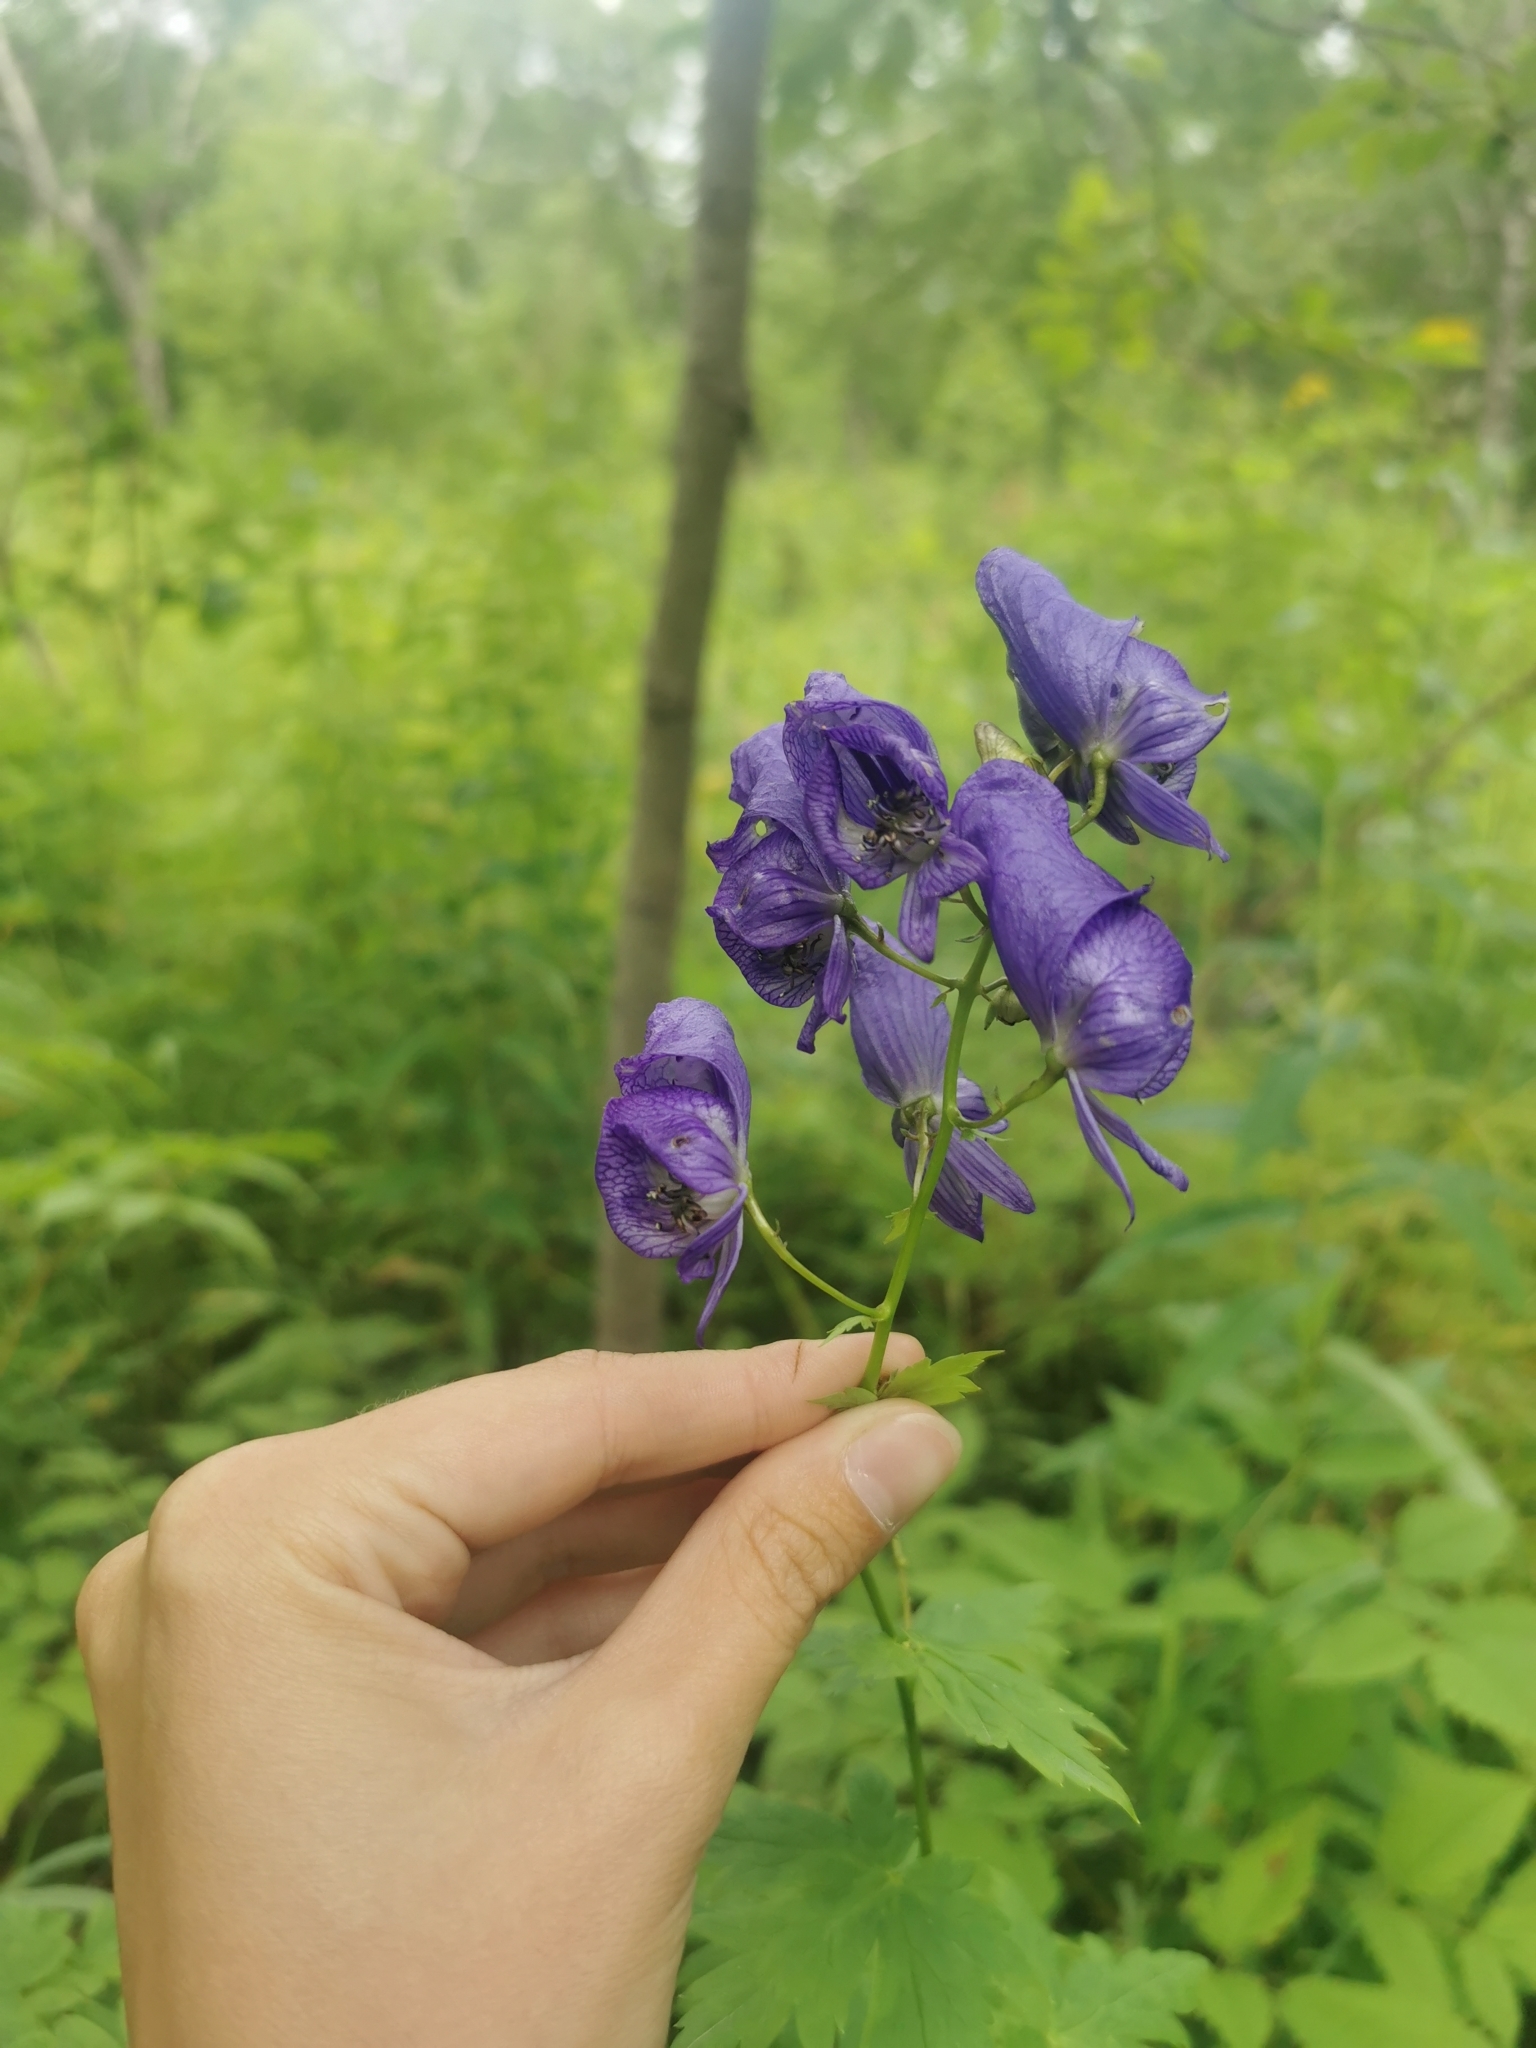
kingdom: Plantae
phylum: Tracheophyta
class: Magnoliopsida
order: Ranunculales
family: Ranunculaceae
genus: Aconitum
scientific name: Aconitum fischeri
